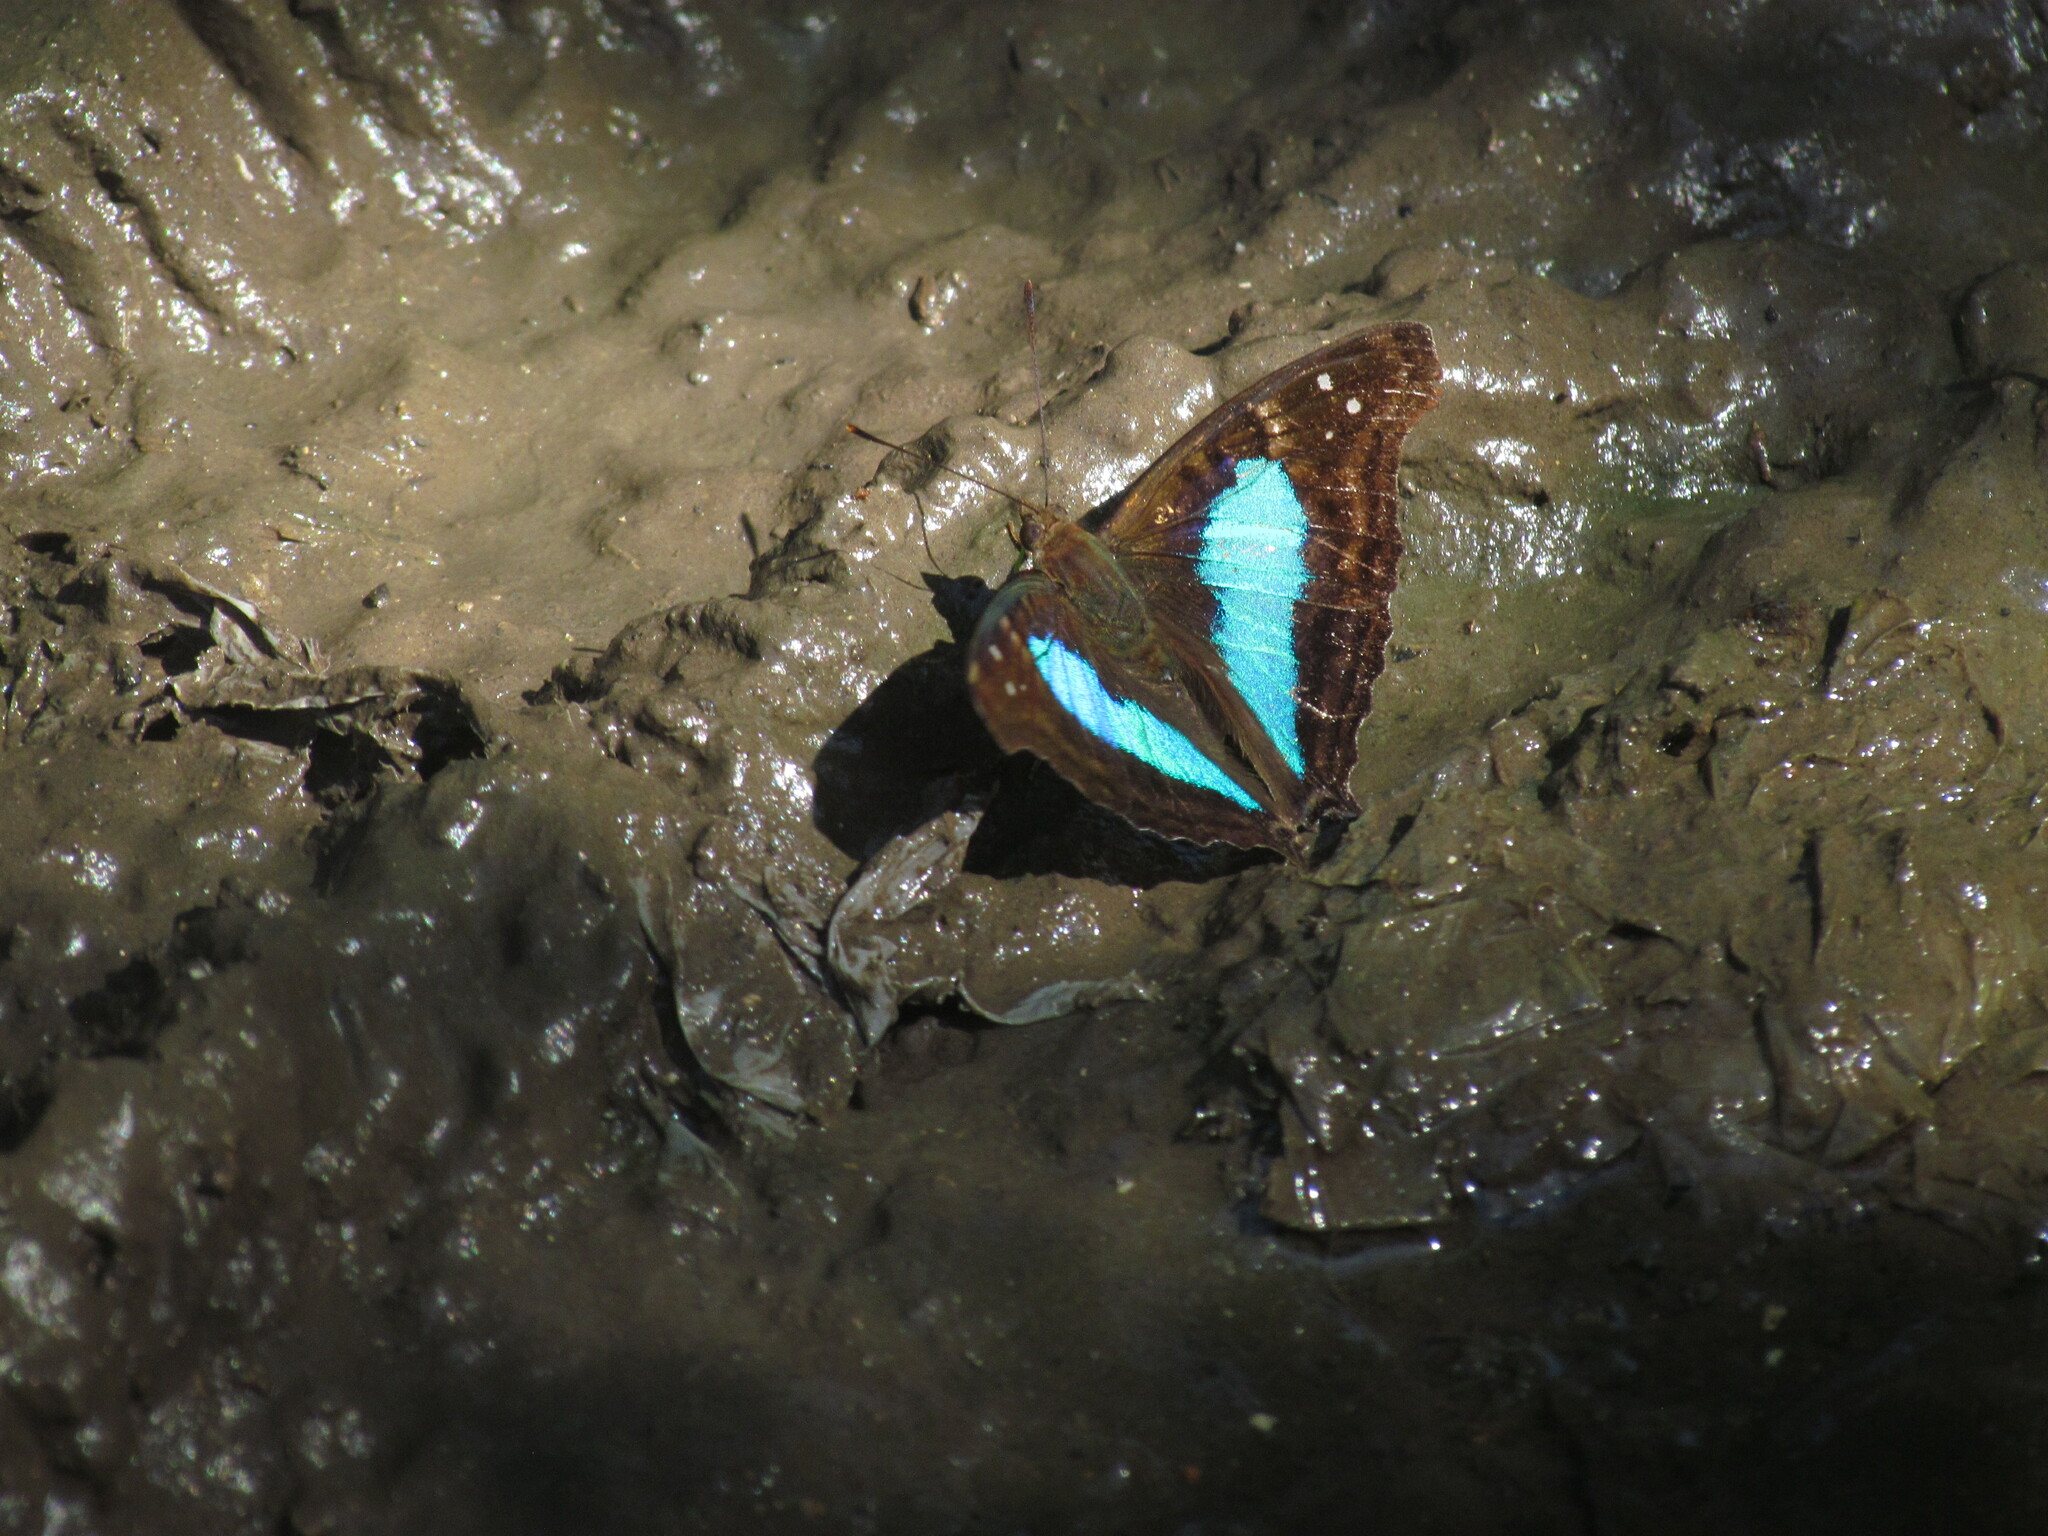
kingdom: Animalia
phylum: Arthropoda
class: Insecta
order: Lepidoptera
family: Nymphalidae
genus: Doxocopa
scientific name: Doxocopa laurentia
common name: Turquoise emperor
